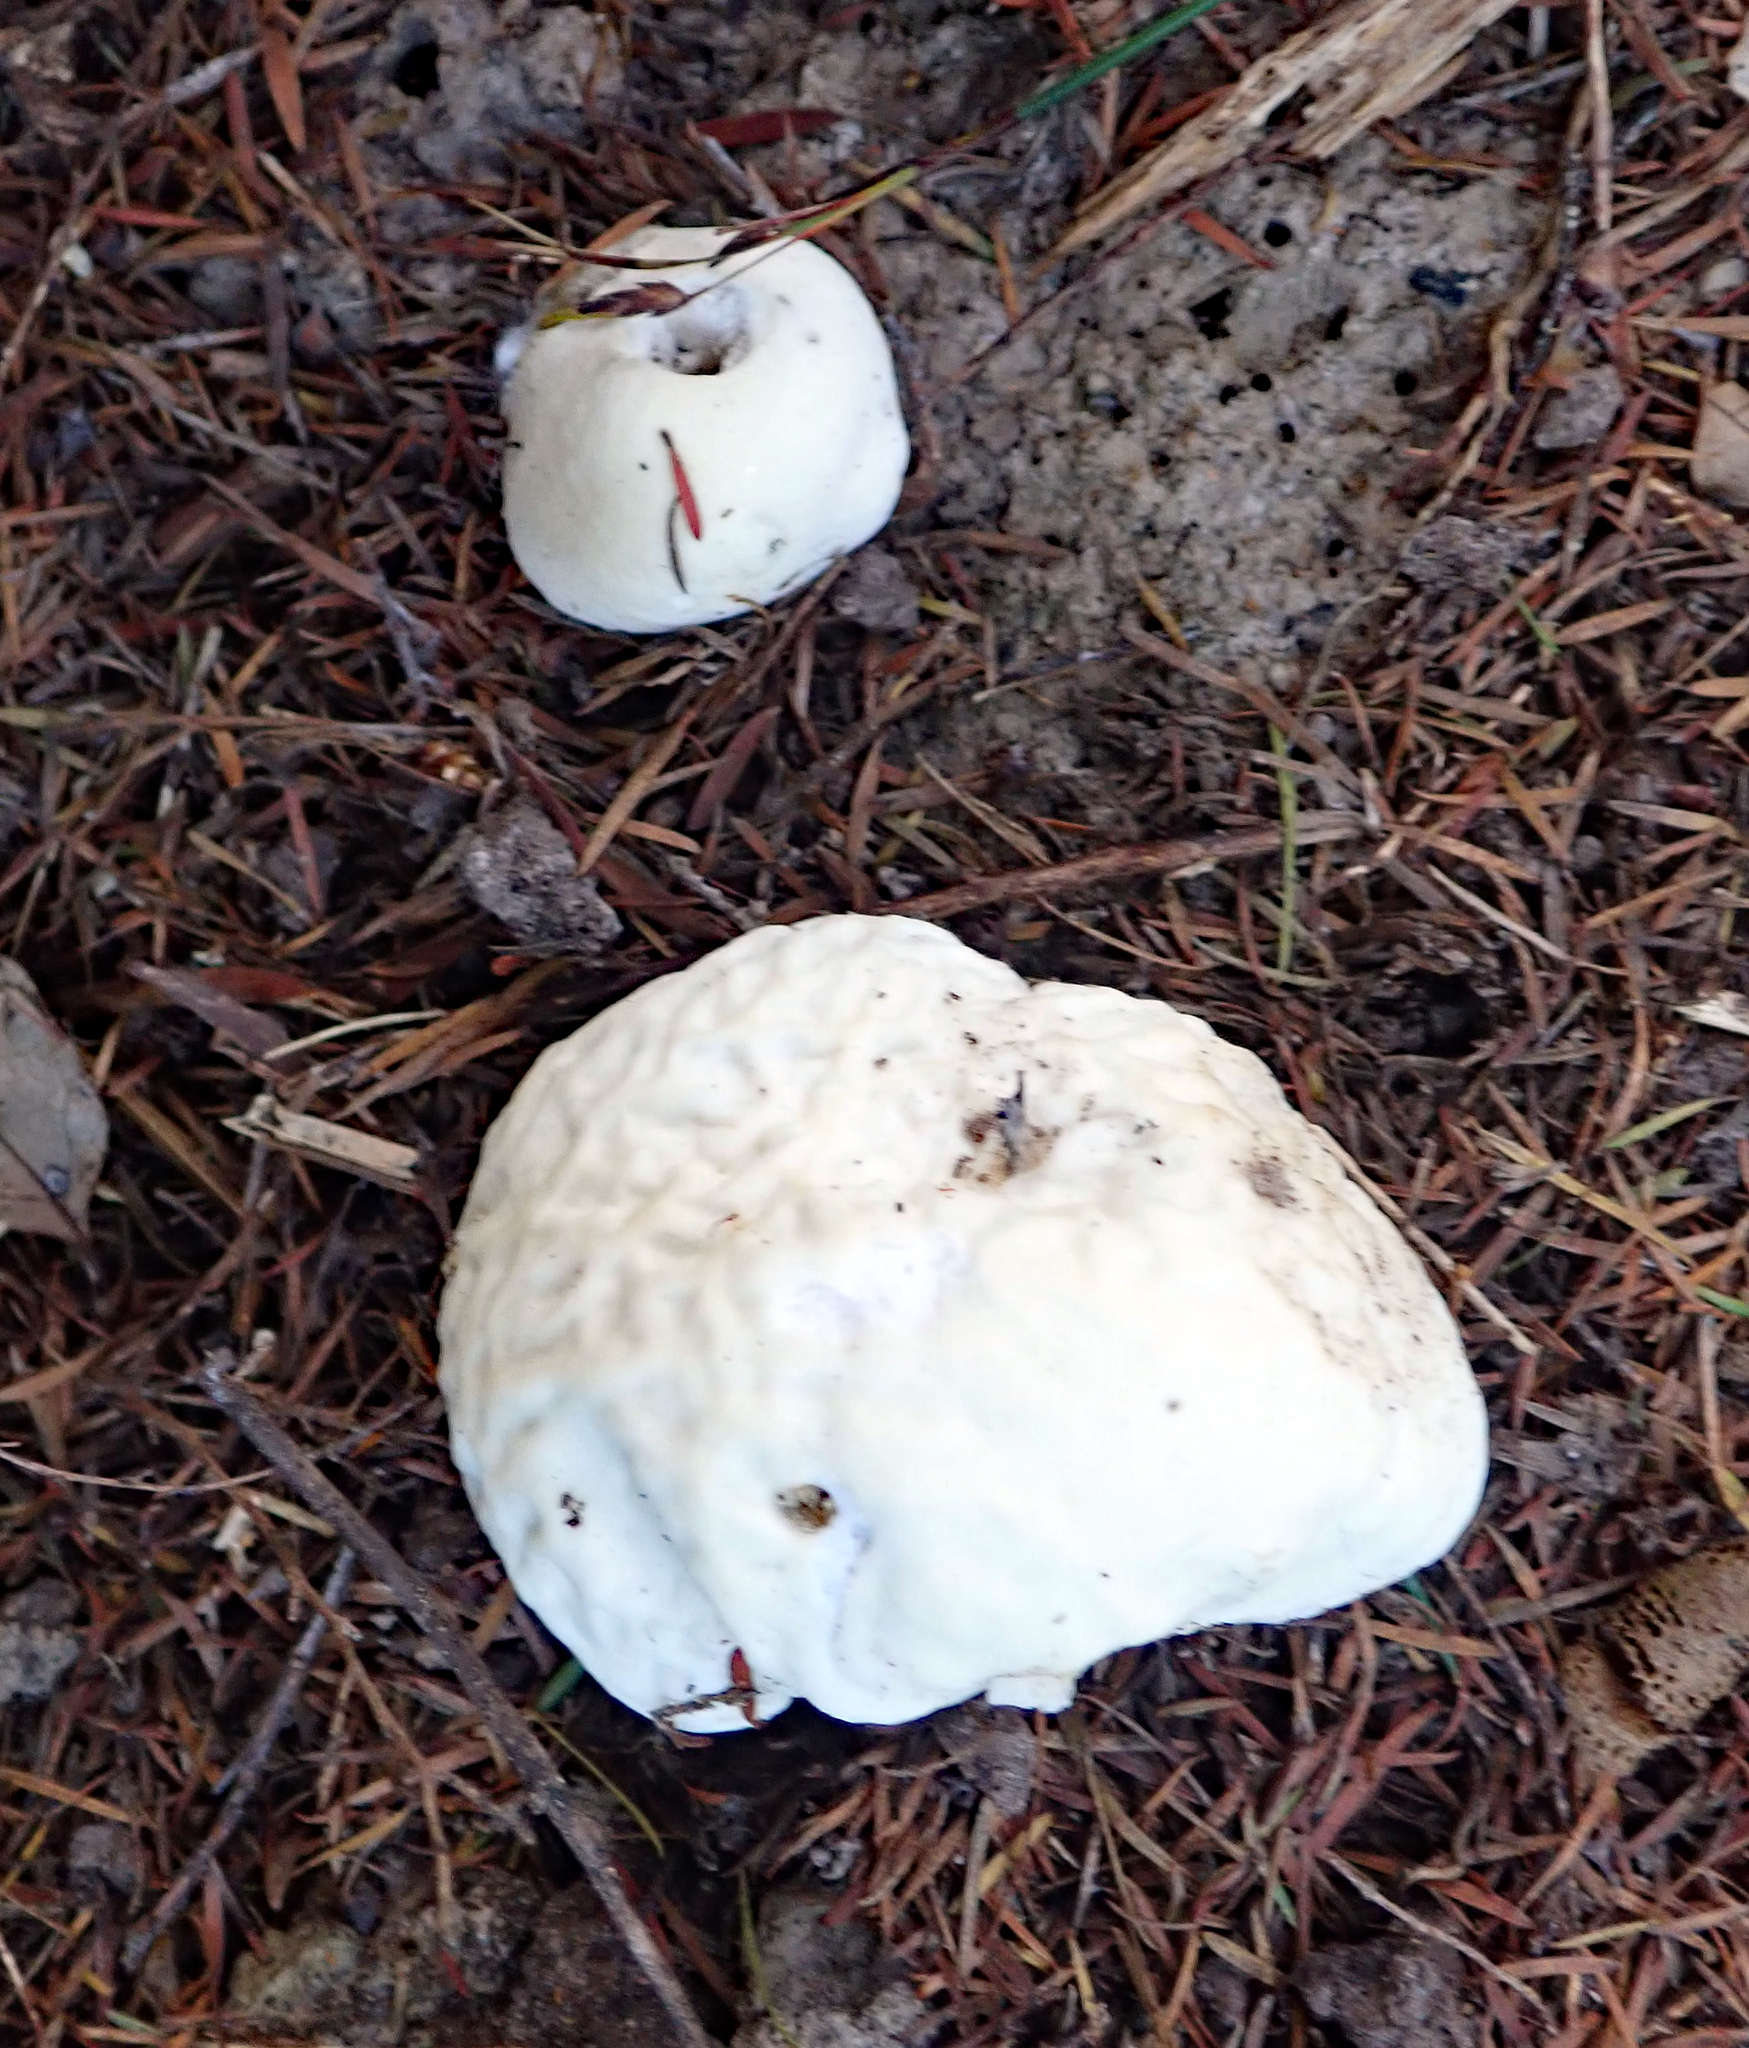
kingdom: Fungi
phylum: Basidiomycota
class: Agaricomycetes
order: Boletales
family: Boletaceae
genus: Boletus
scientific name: Boletus semigastroideus
